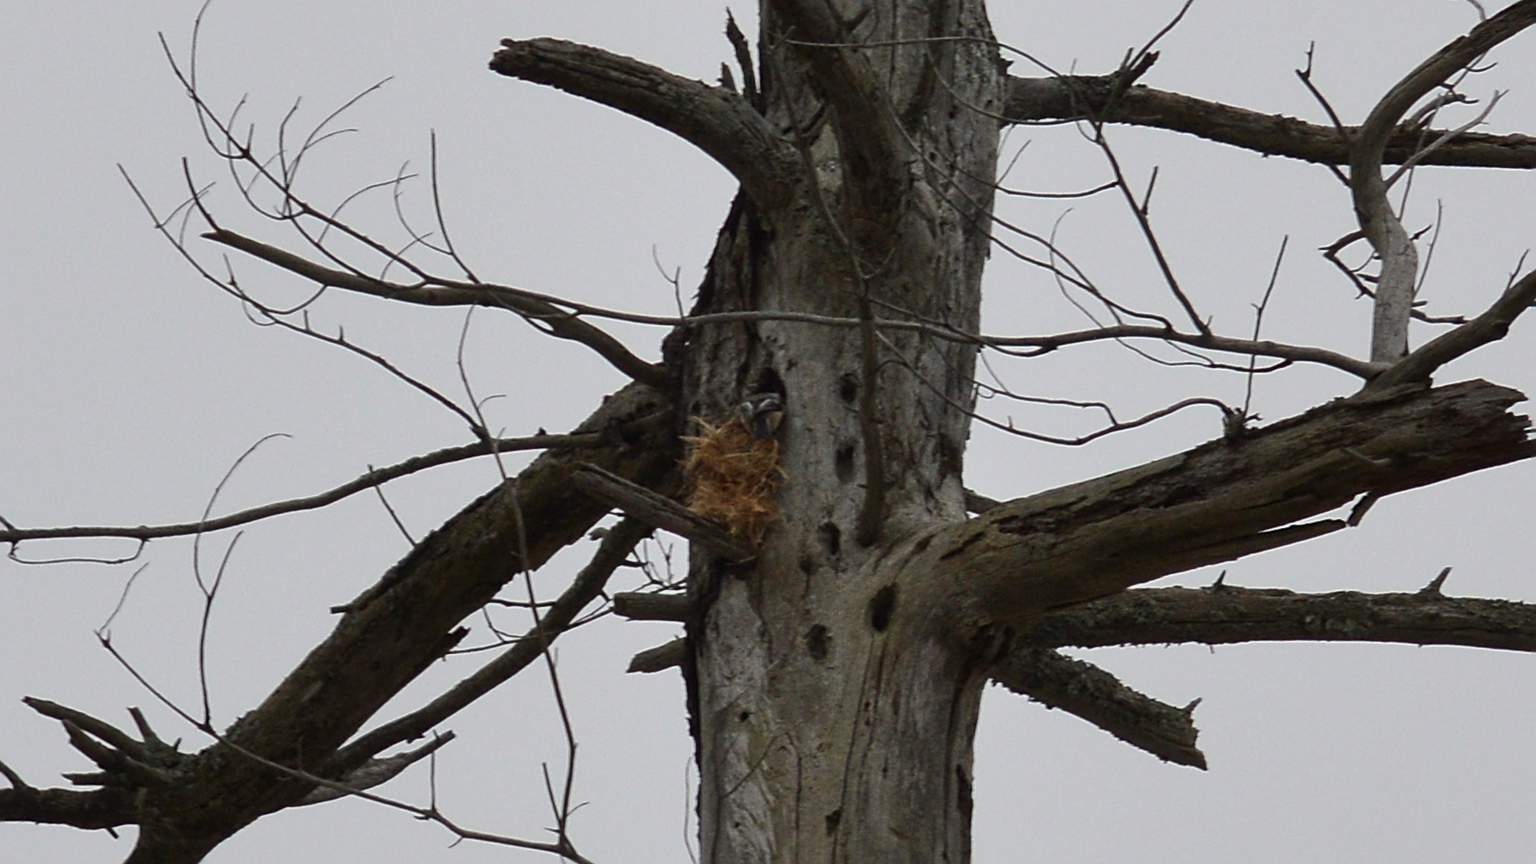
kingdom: Animalia
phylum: Chordata
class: Aves
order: Passeriformes
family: Paridae
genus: Poecile
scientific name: Poecile atricapillus
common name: Black-capped chickadee
